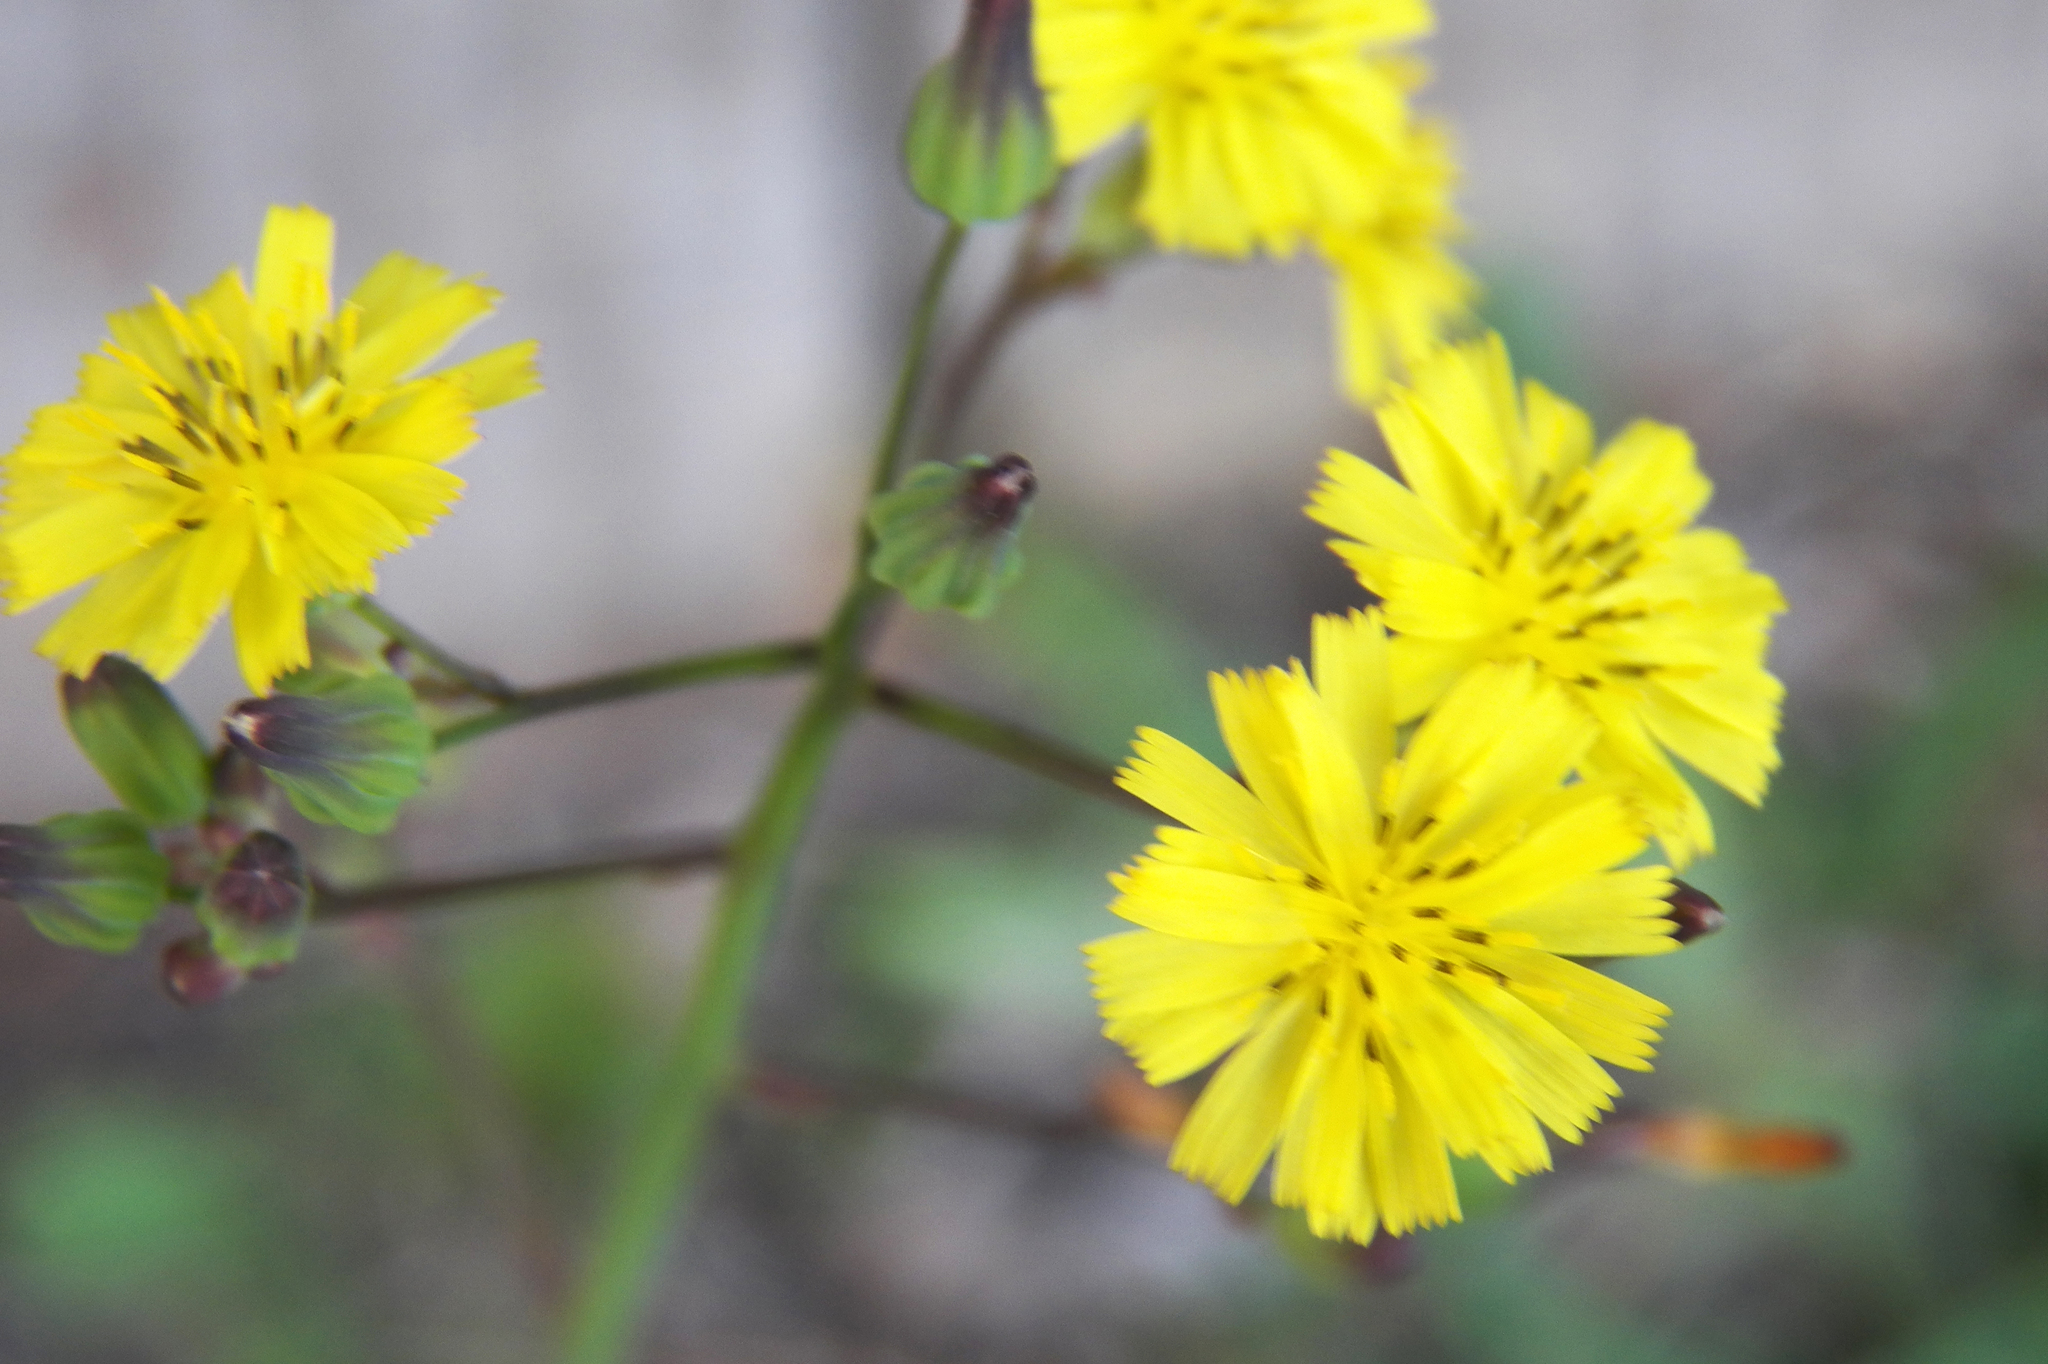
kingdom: Plantae
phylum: Tracheophyta
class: Magnoliopsida
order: Asterales
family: Asteraceae
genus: Youngia
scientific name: Youngia japonica
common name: Oriental false hawksbeard
